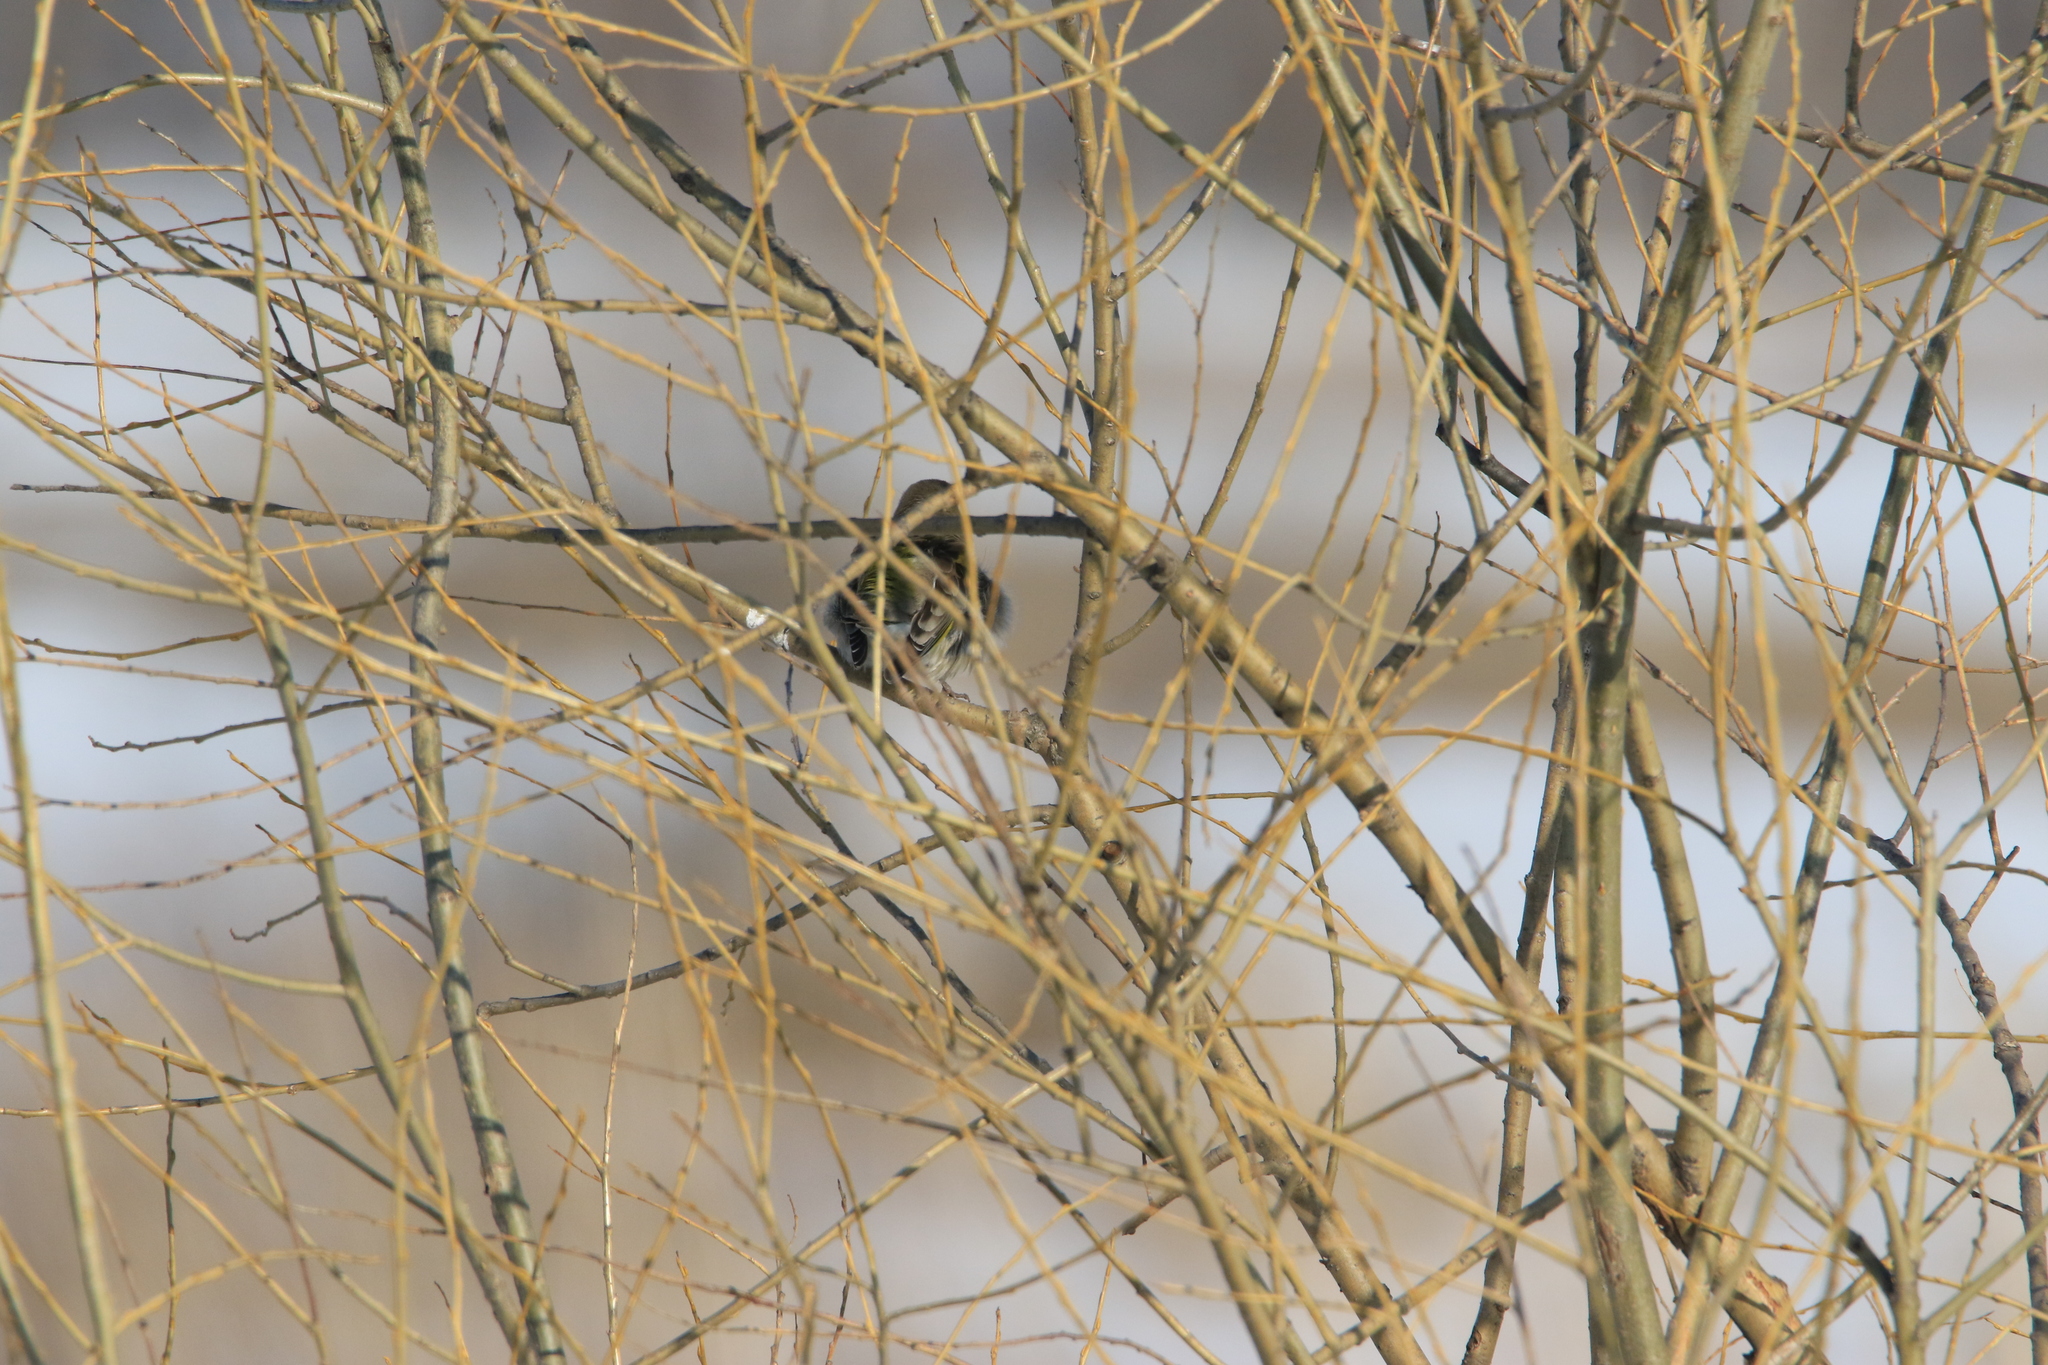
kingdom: Plantae
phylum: Tracheophyta
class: Liliopsida
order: Poales
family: Poaceae
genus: Chloris
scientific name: Chloris chloris
